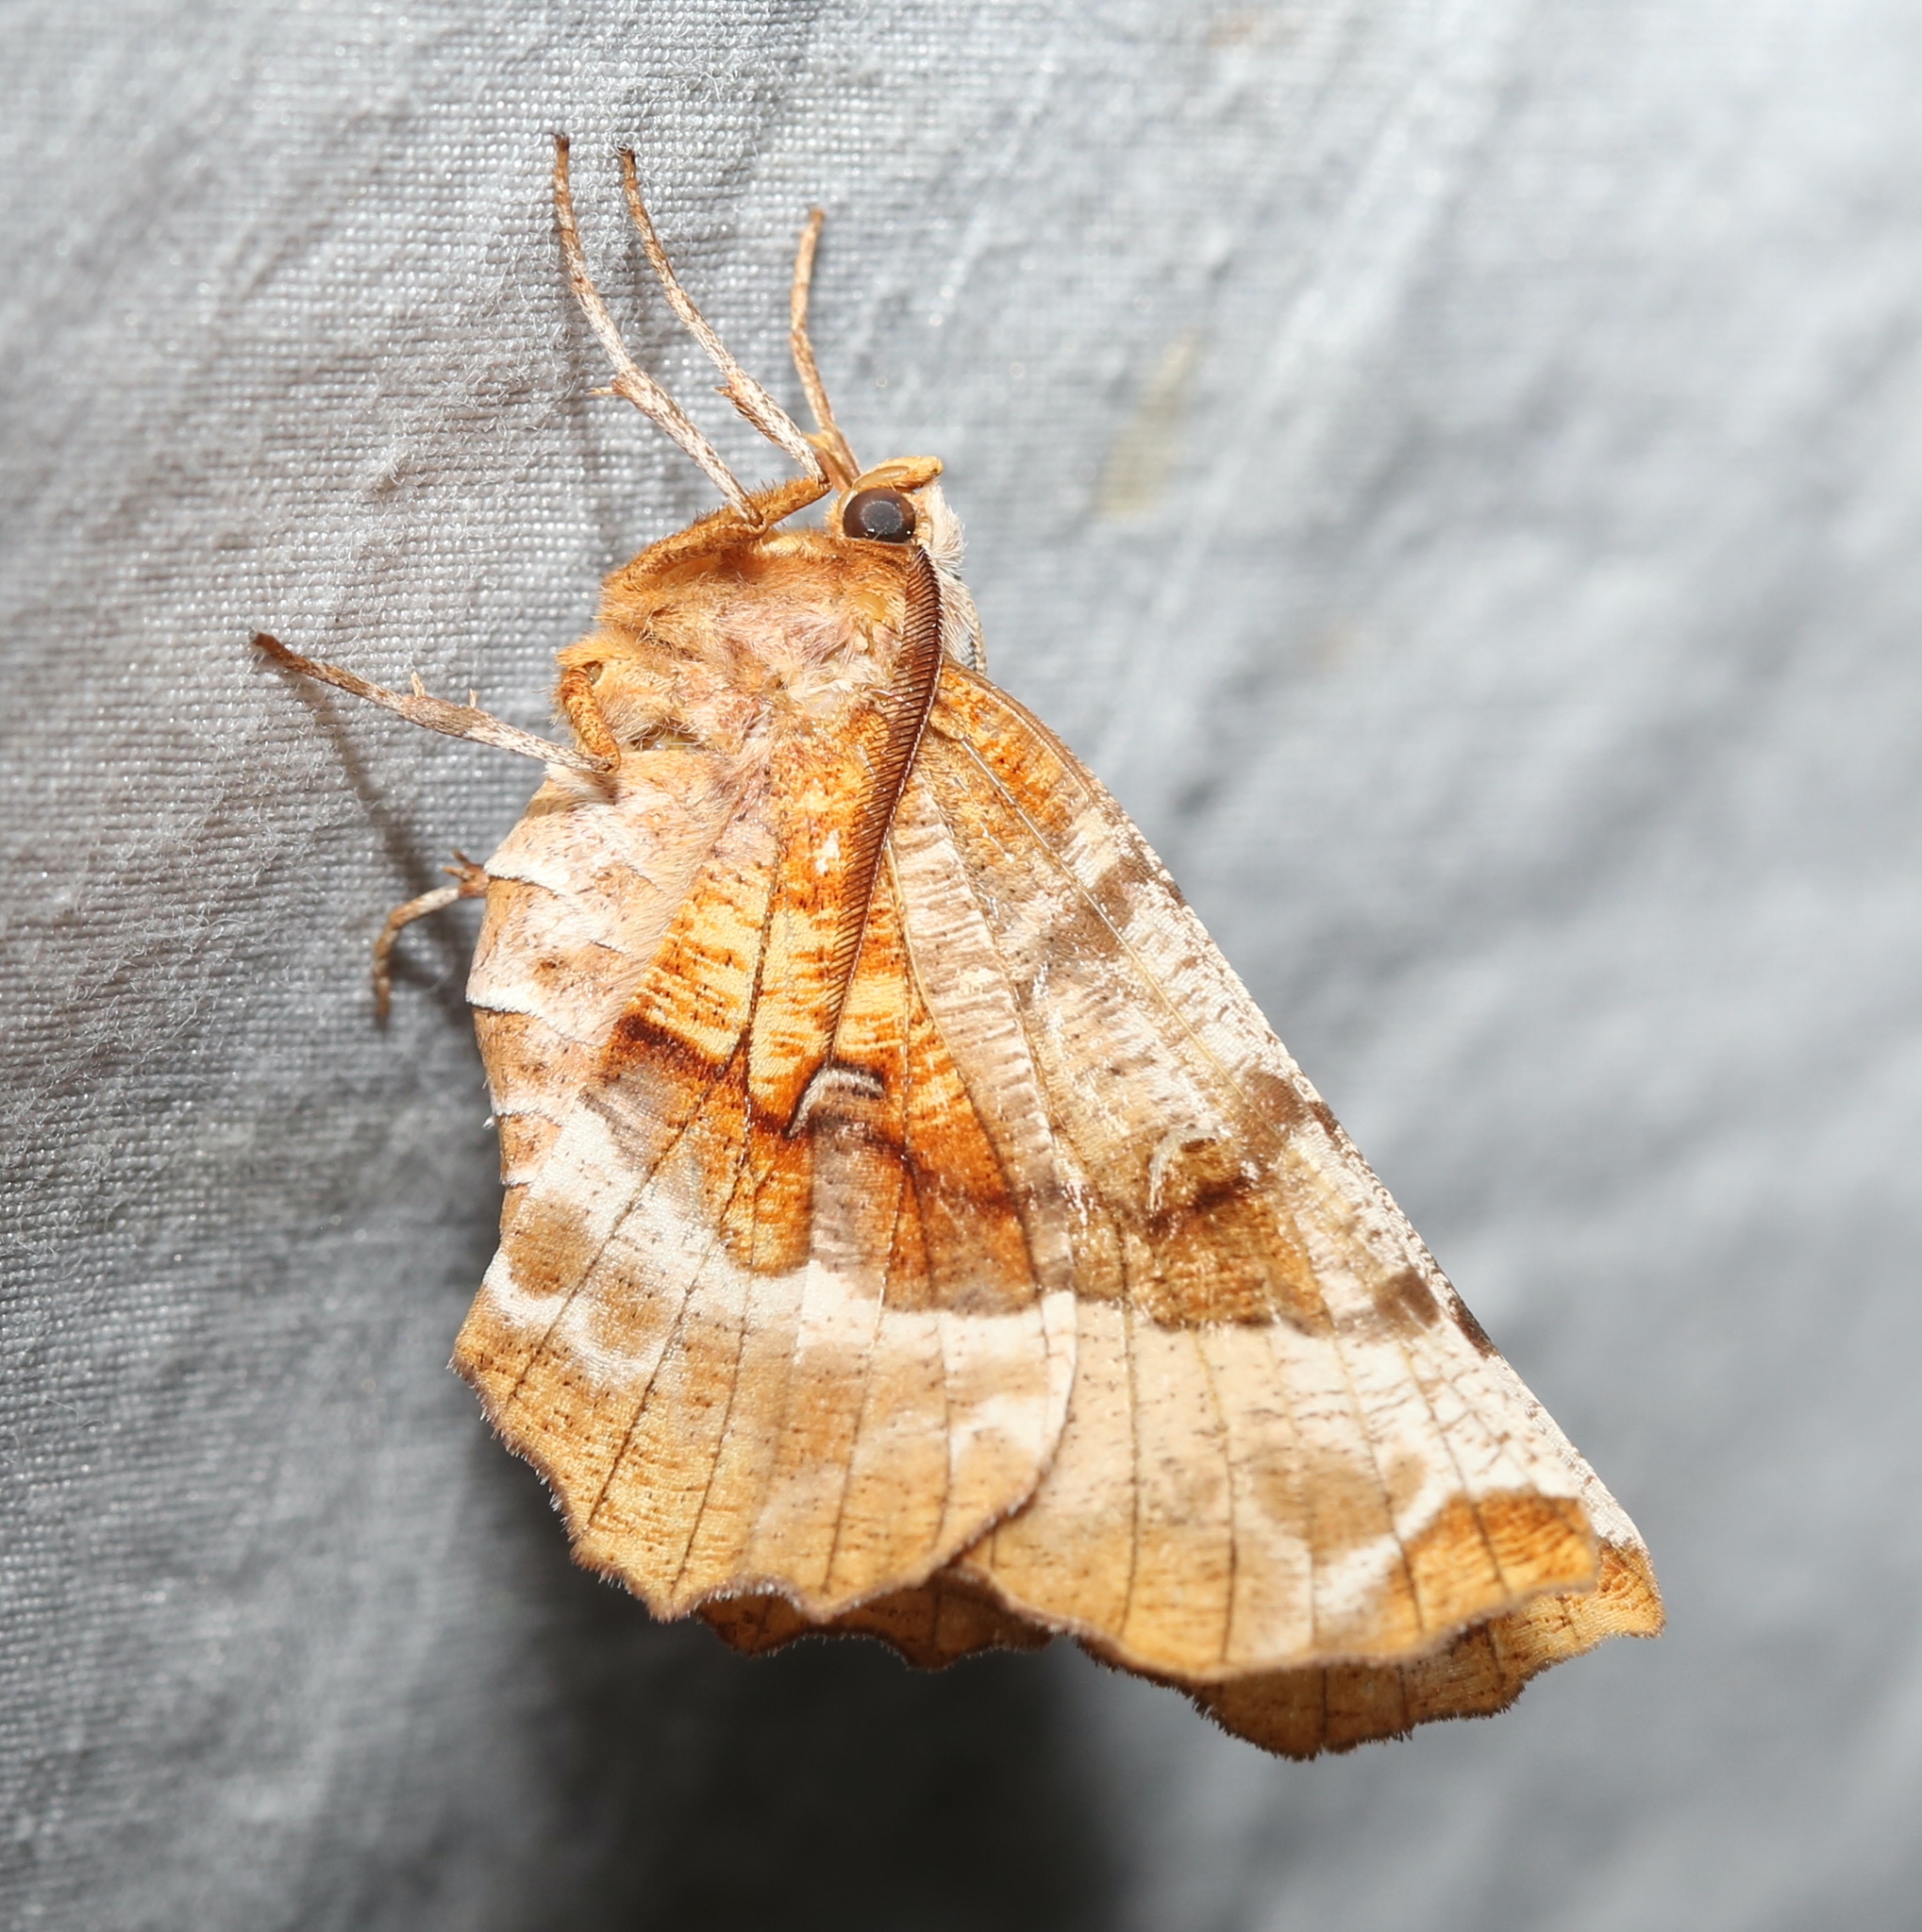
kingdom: Animalia
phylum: Arthropoda
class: Insecta
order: Lepidoptera
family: Geometridae
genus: Selenia
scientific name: Selenia kentaria
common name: Kent's geometer
